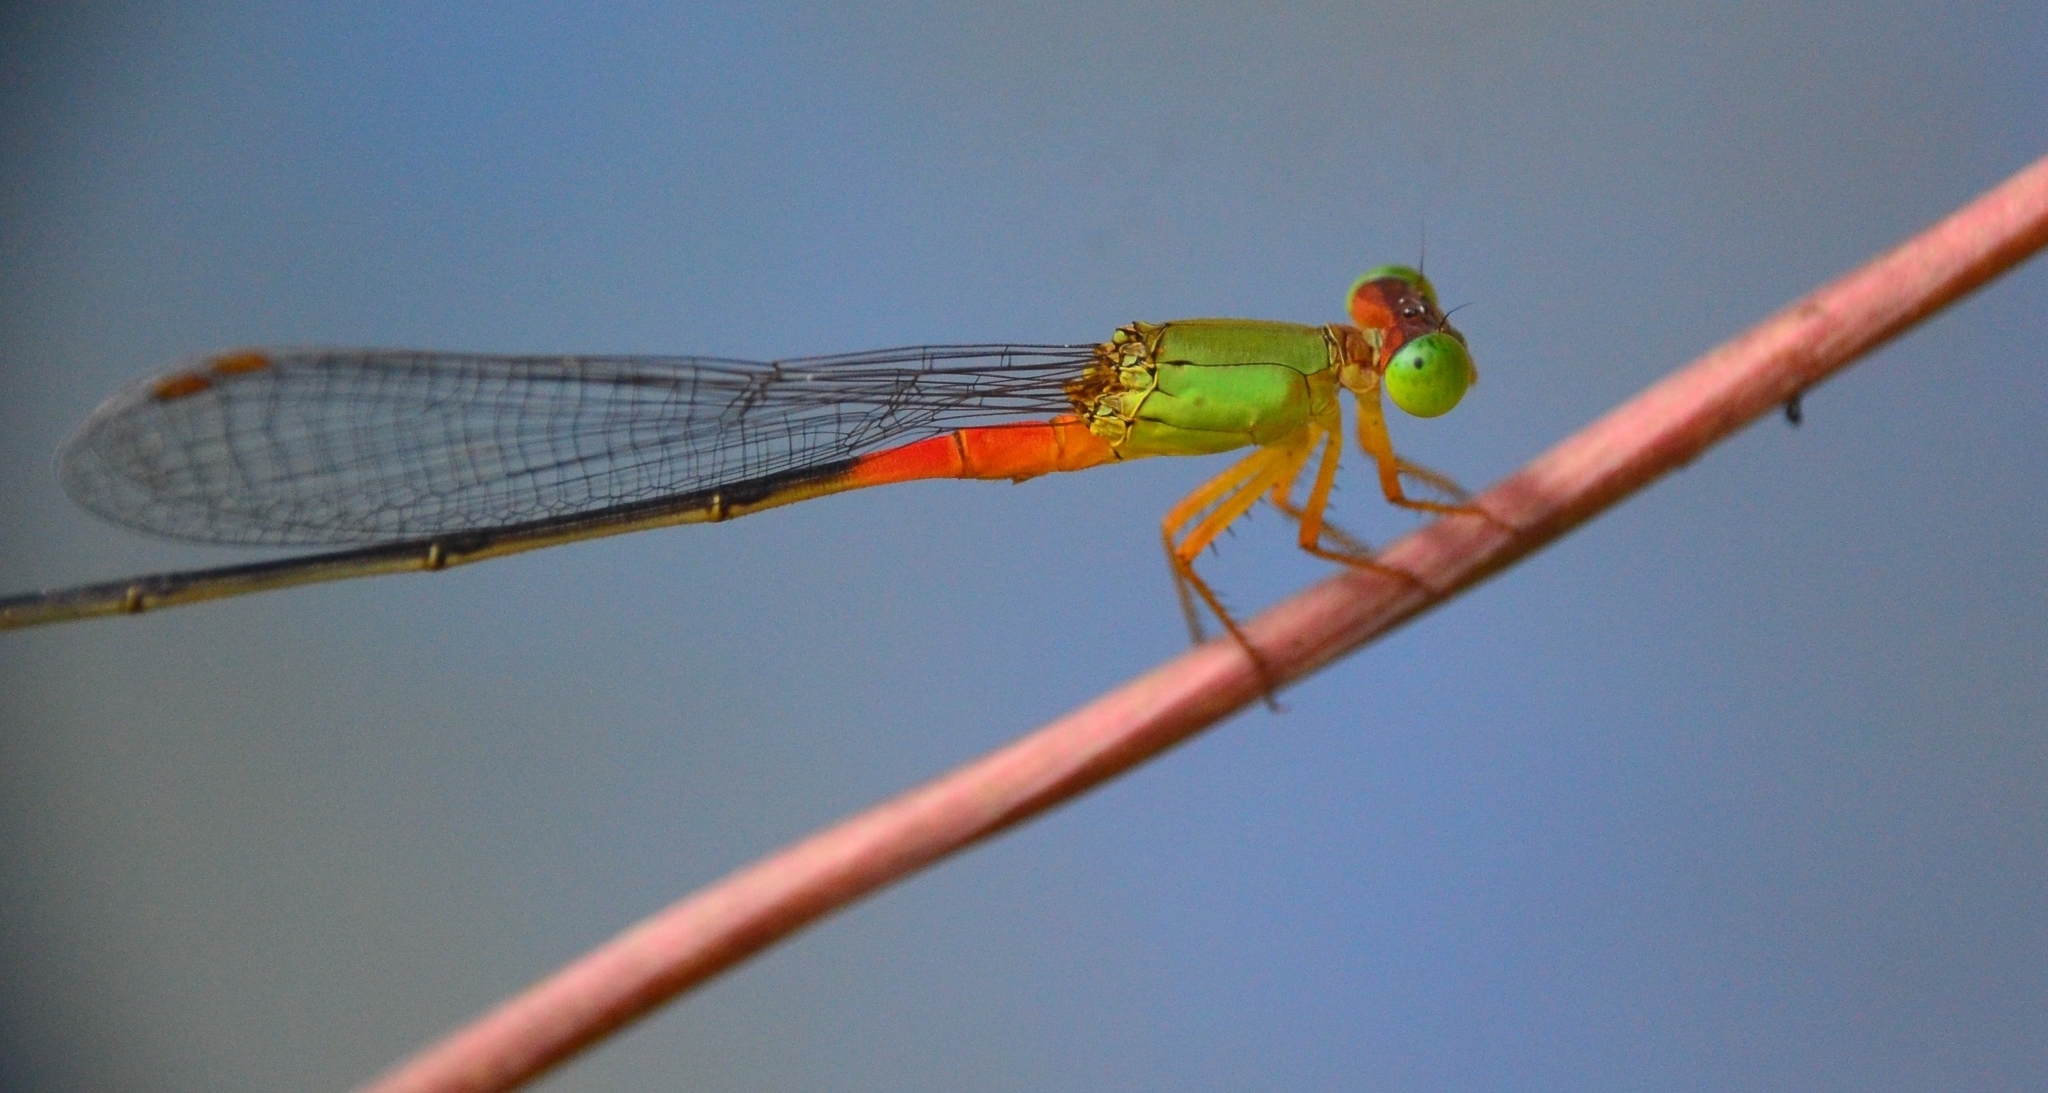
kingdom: Animalia
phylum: Arthropoda
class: Insecta
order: Odonata
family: Coenagrionidae
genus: Ceriagrion
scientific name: Ceriagrion cerinorubellum
